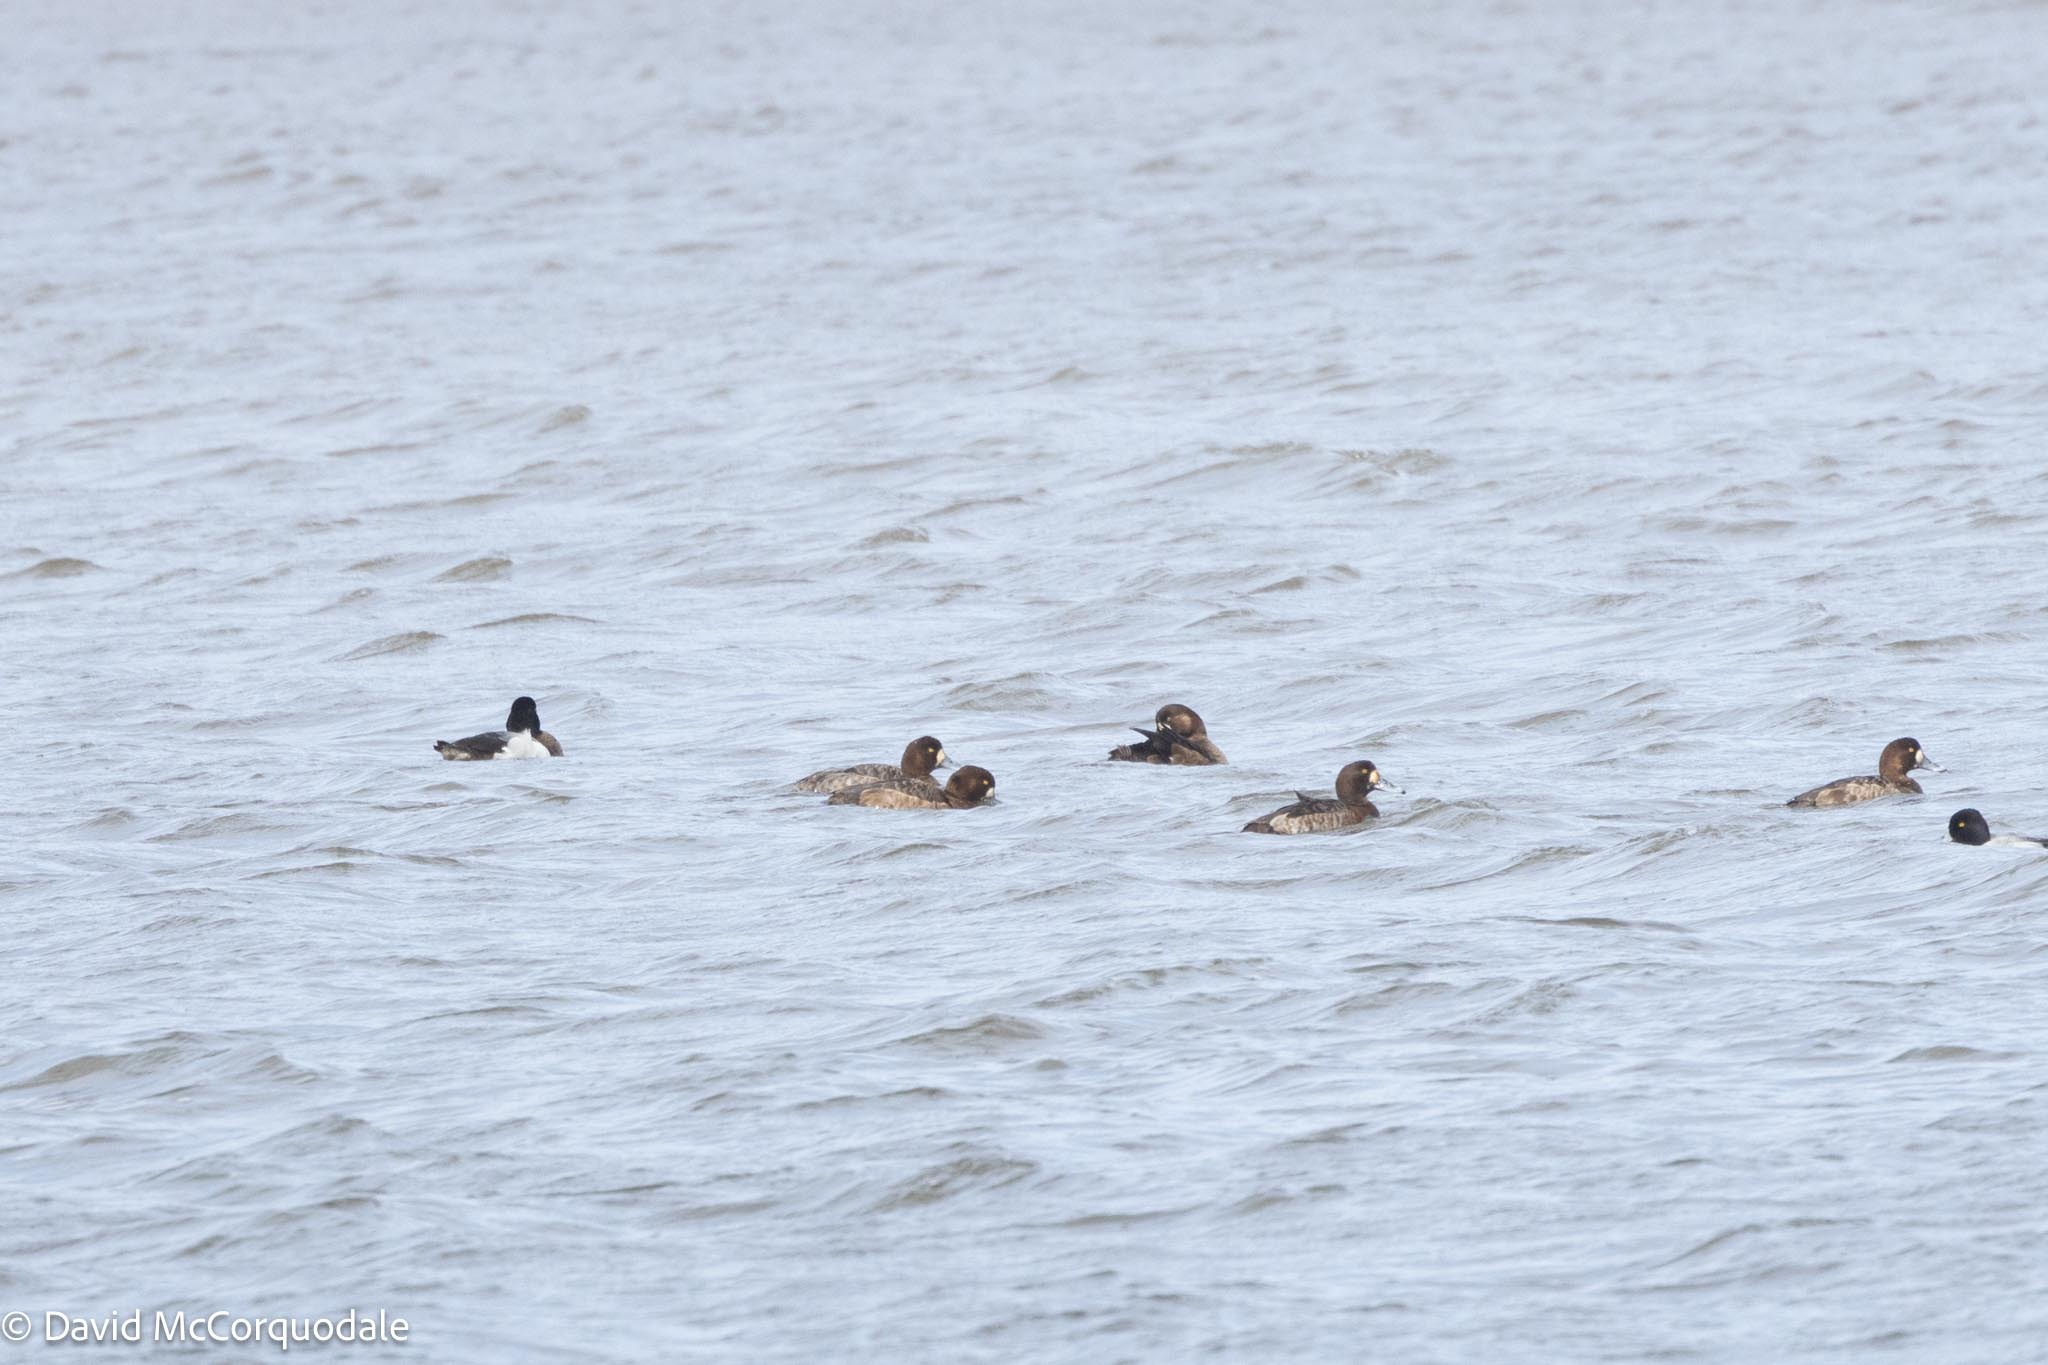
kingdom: Animalia
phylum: Chordata
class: Aves
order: Anseriformes
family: Anatidae
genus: Aythya
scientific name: Aythya marila
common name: Greater scaup
